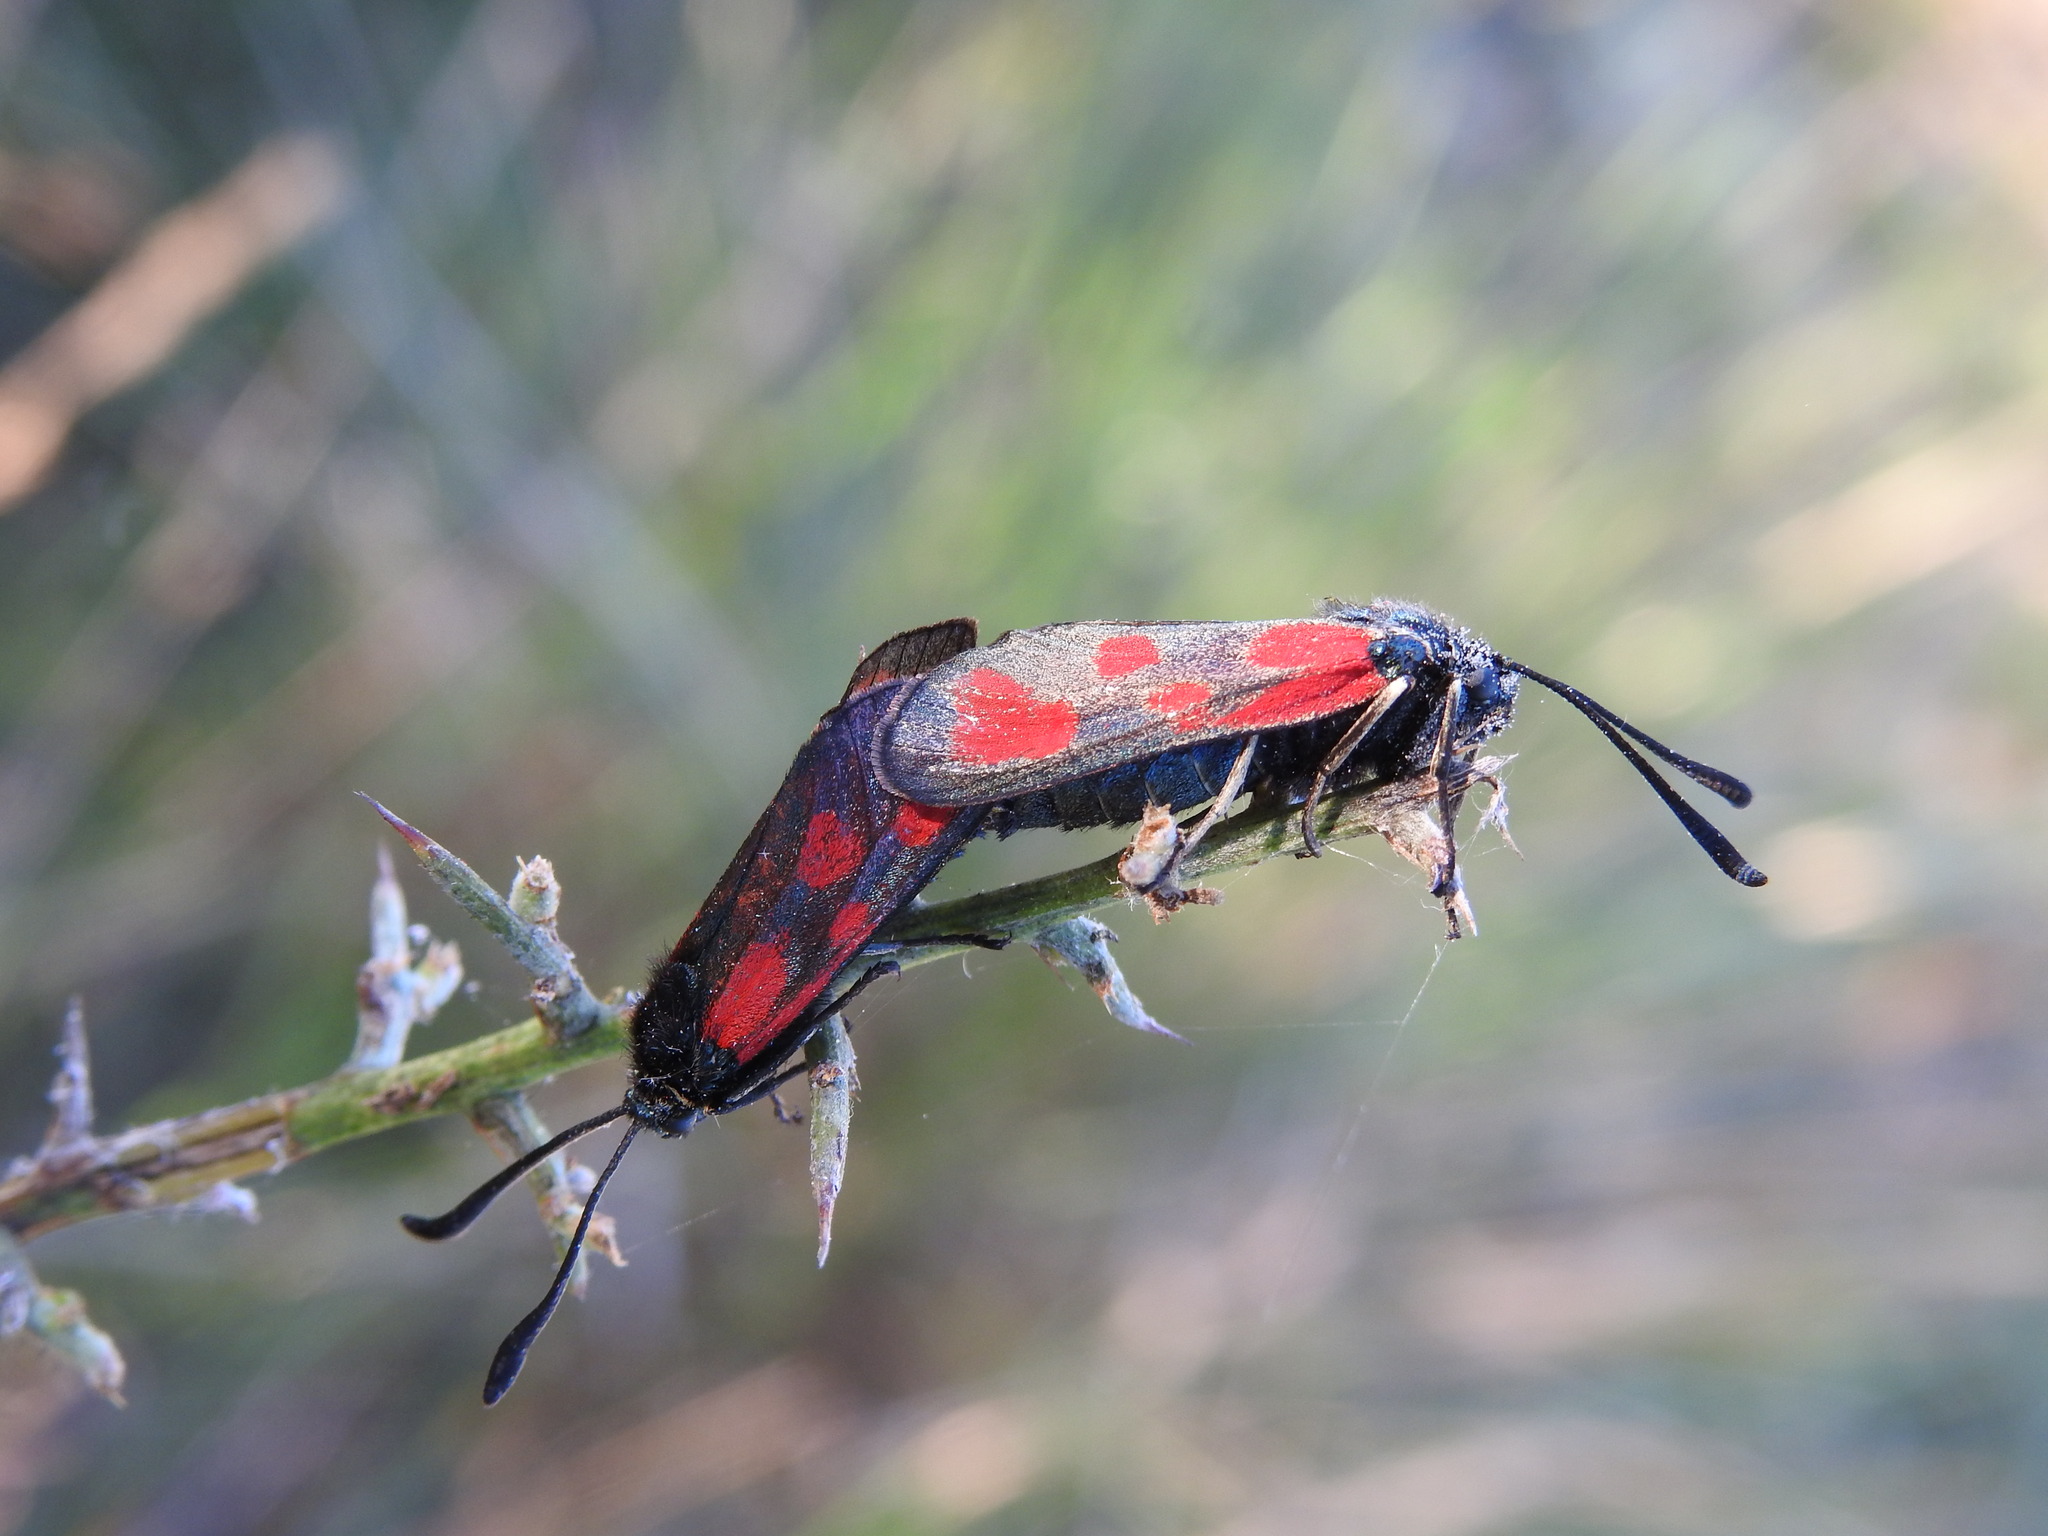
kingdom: Animalia
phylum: Arthropoda
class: Insecta
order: Lepidoptera
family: Zygaenidae
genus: Zygaena
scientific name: Zygaena loti
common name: Slender scotch burnet
